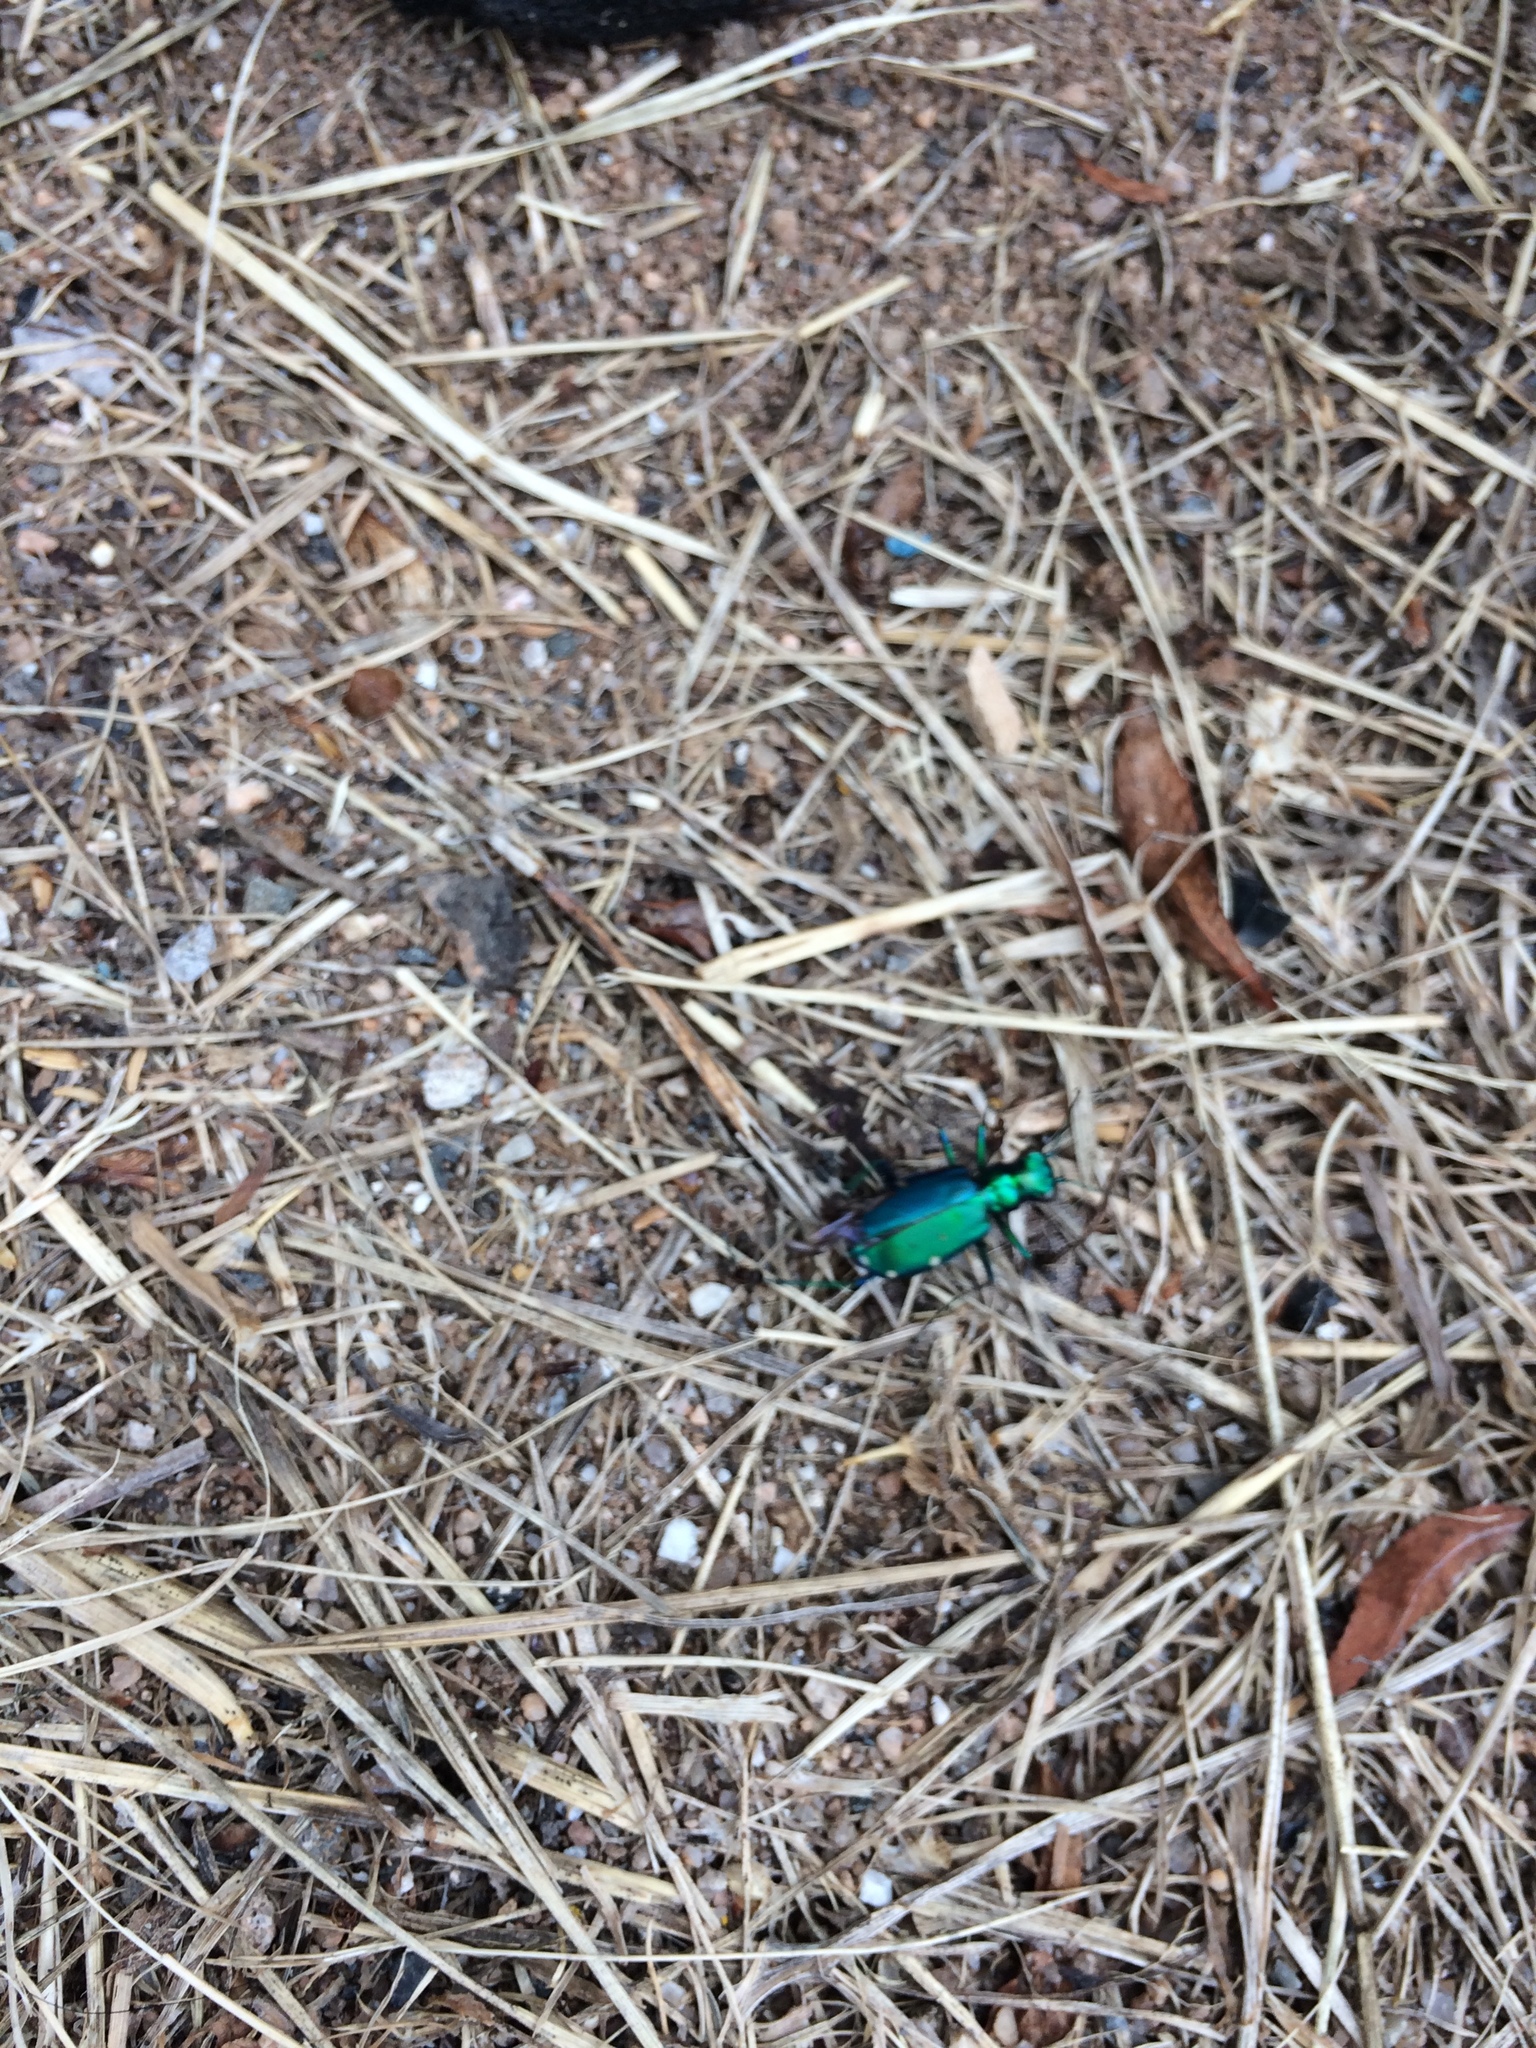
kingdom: Animalia
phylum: Arthropoda
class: Insecta
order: Coleoptera
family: Carabidae
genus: Cicindela
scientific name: Cicindela sexguttata
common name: Six-spotted tiger beetle
